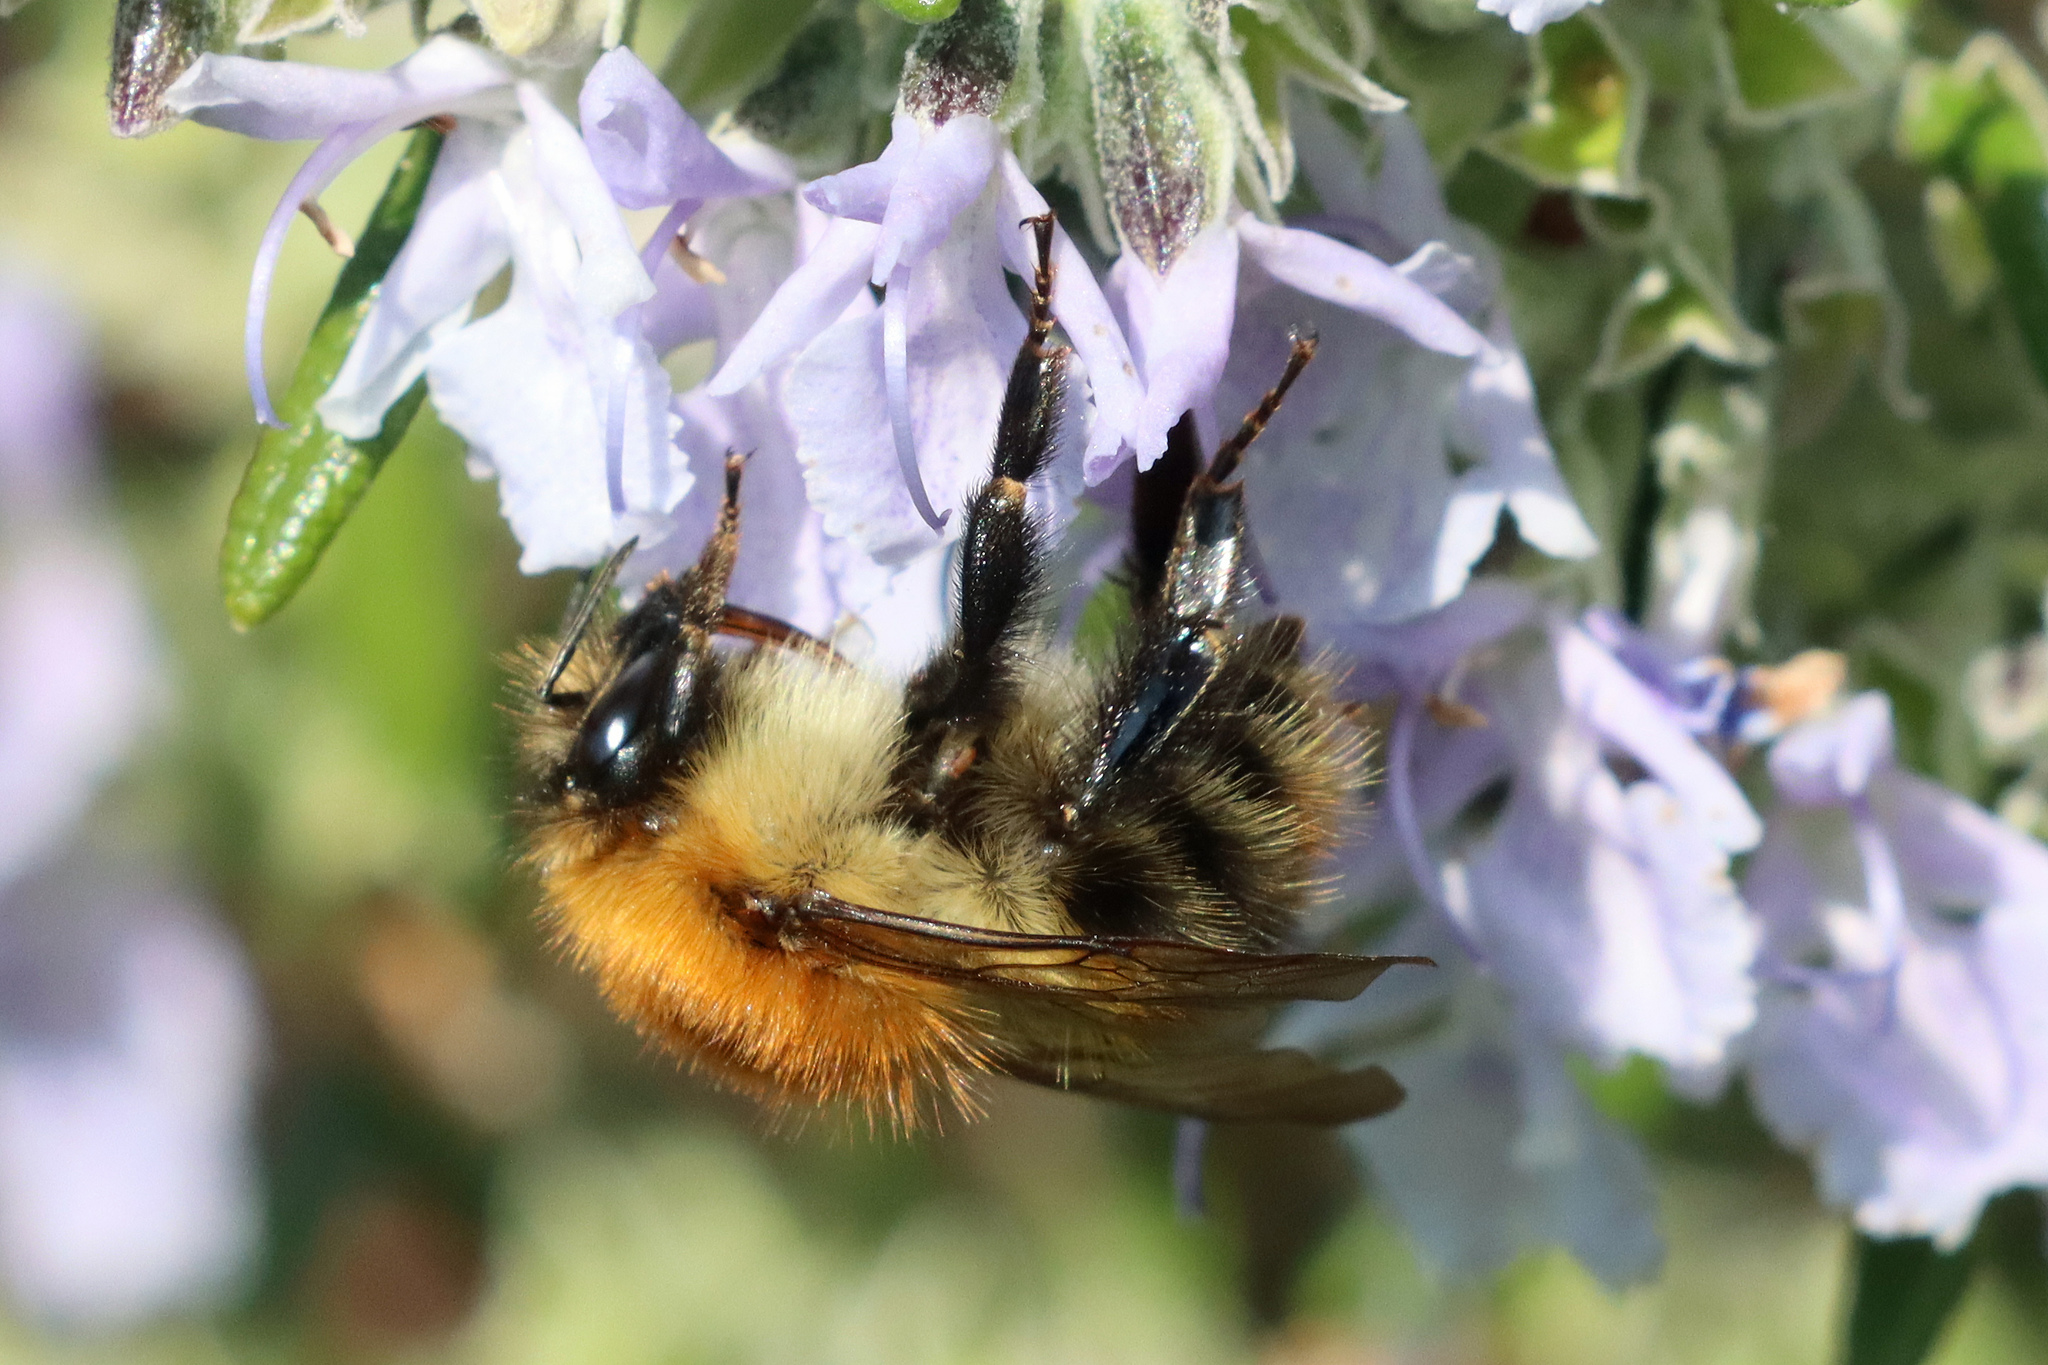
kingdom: Animalia
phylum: Arthropoda
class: Insecta
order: Hymenoptera
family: Apidae
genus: Bombus
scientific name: Bombus pascuorum
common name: Common carder bee
